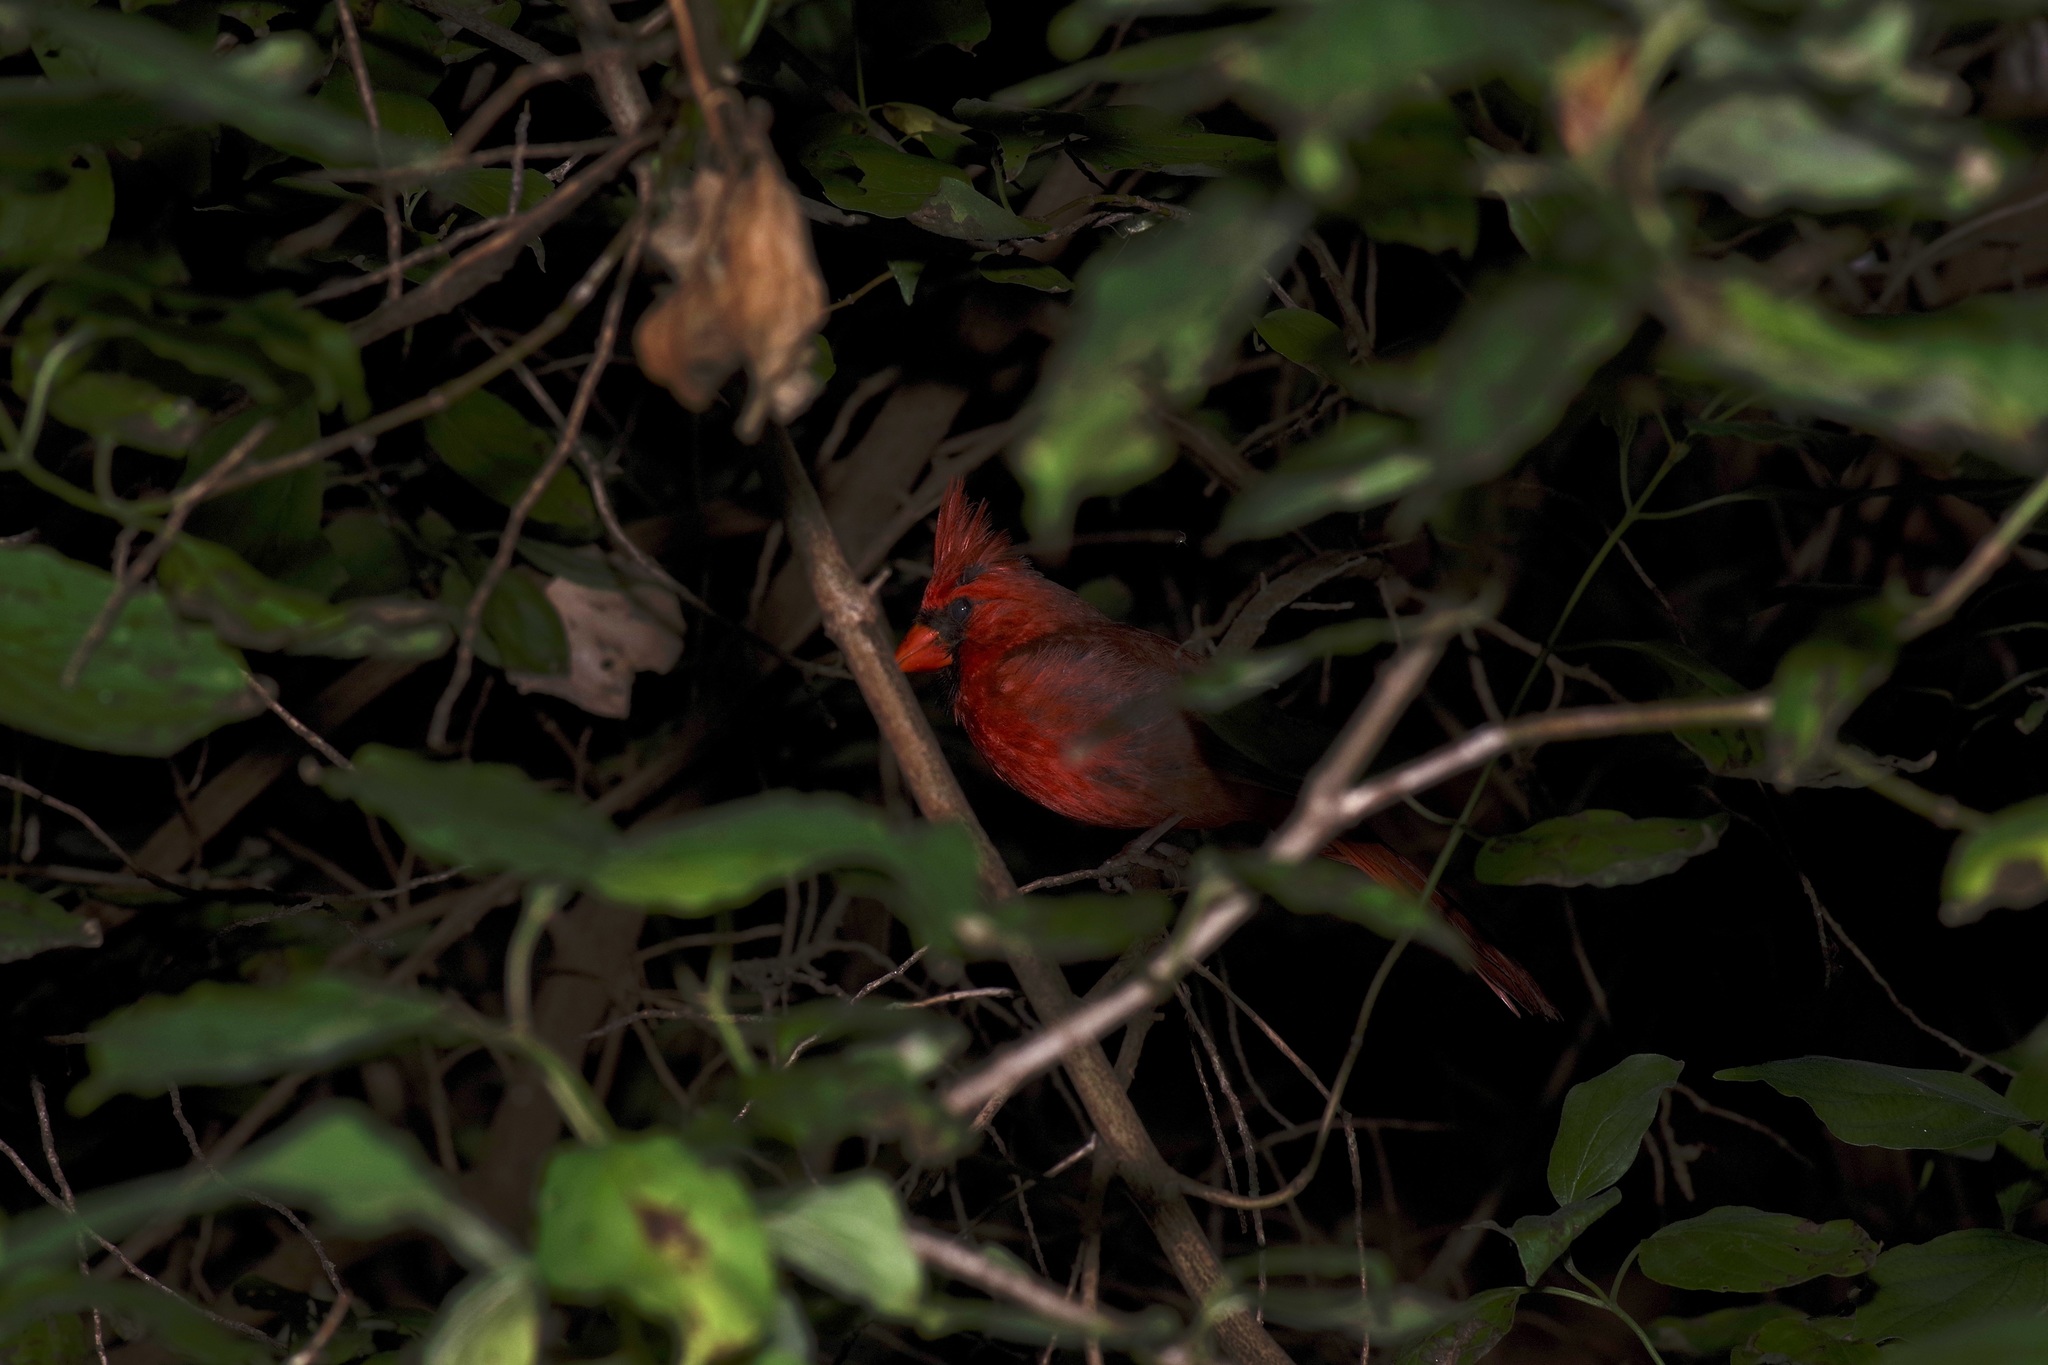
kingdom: Animalia
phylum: Chordata
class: Aves
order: Passeriformes
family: Cardinalidae
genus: Cardinalis
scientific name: Cardinalis cardinalis
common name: Northern cardinal
